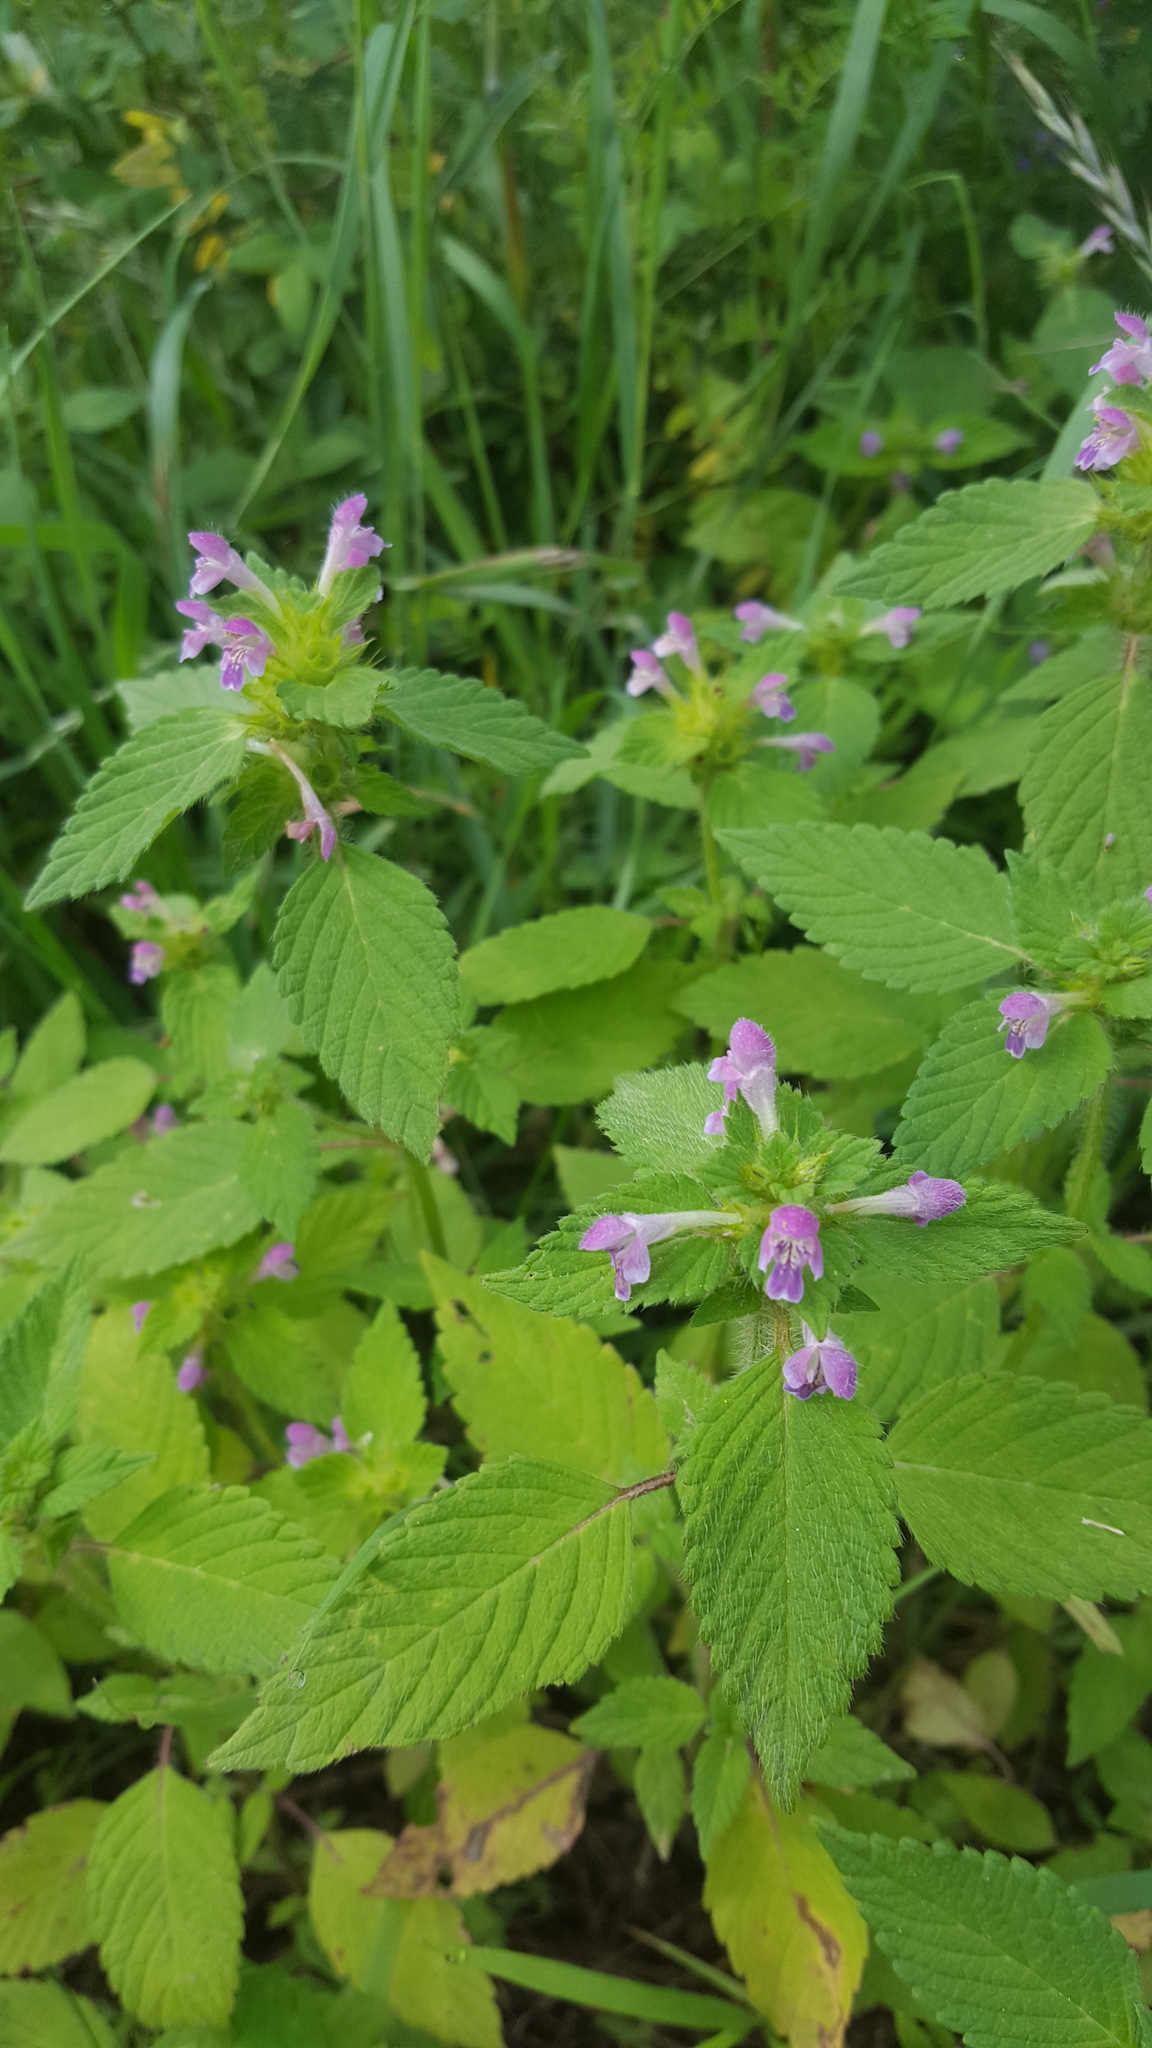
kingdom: Plantae
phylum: Tracheophyta
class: Magnoliopsida
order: Lamiales
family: Lamiaceae
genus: Galeopsis
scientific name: Galeopsis bifida
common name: Bifid hemp-nettle
